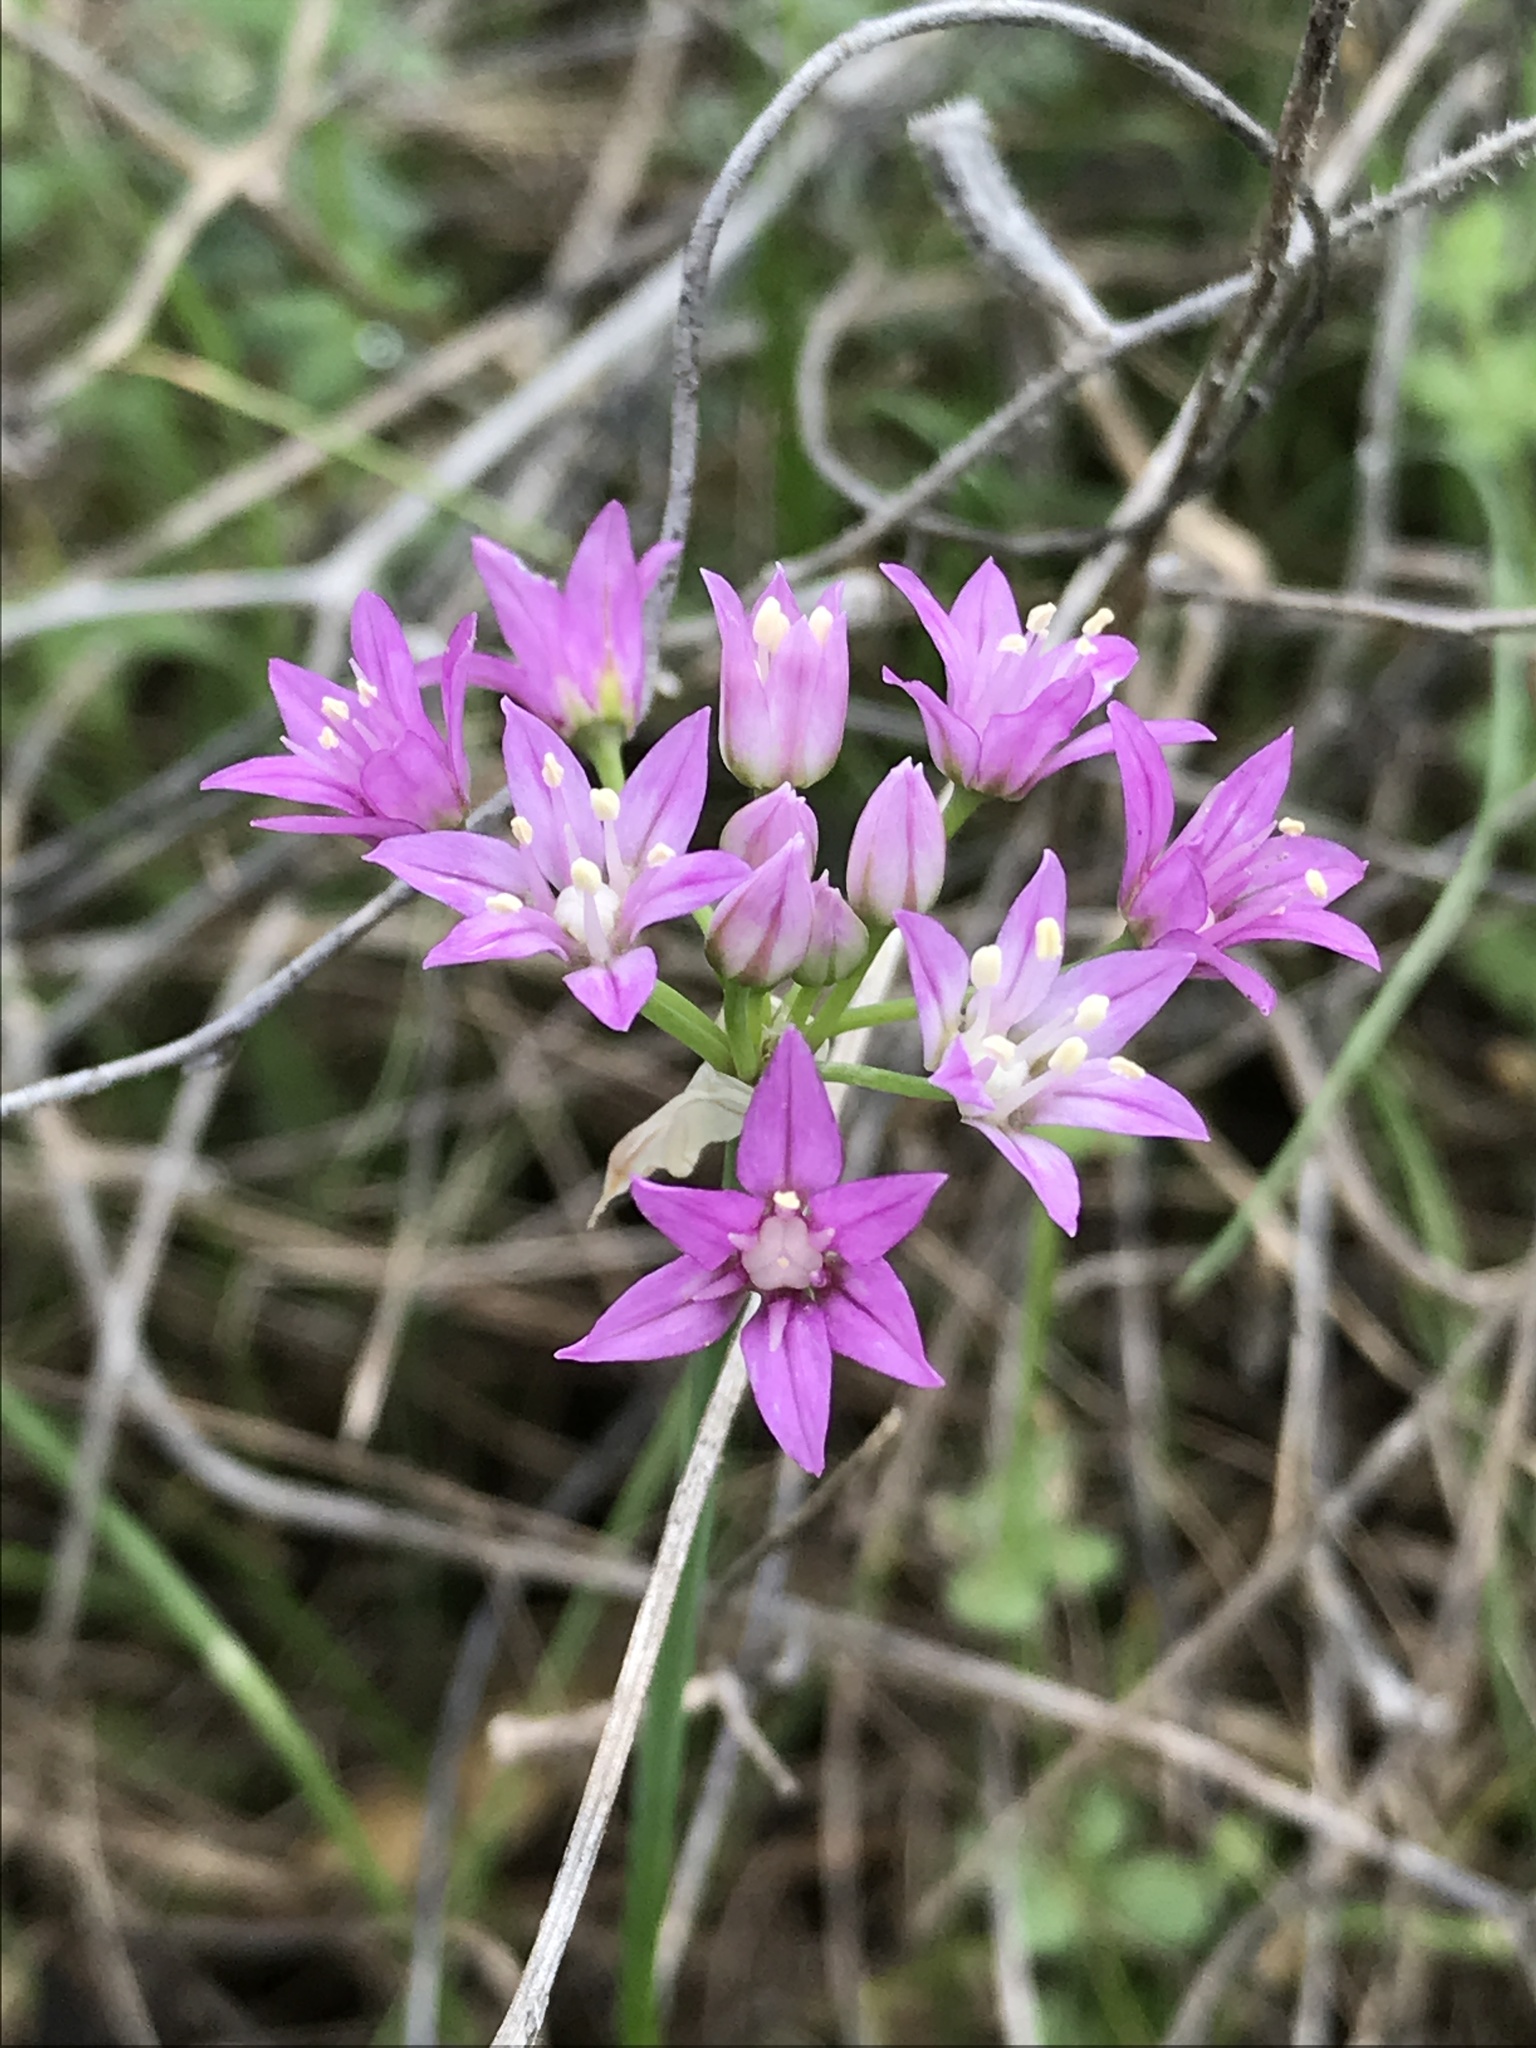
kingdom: Plantae
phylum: Tracheophyta
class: Liliopsida
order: Asparagales
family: Amaryllidaceae
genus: Allium
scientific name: Allium drummondii
